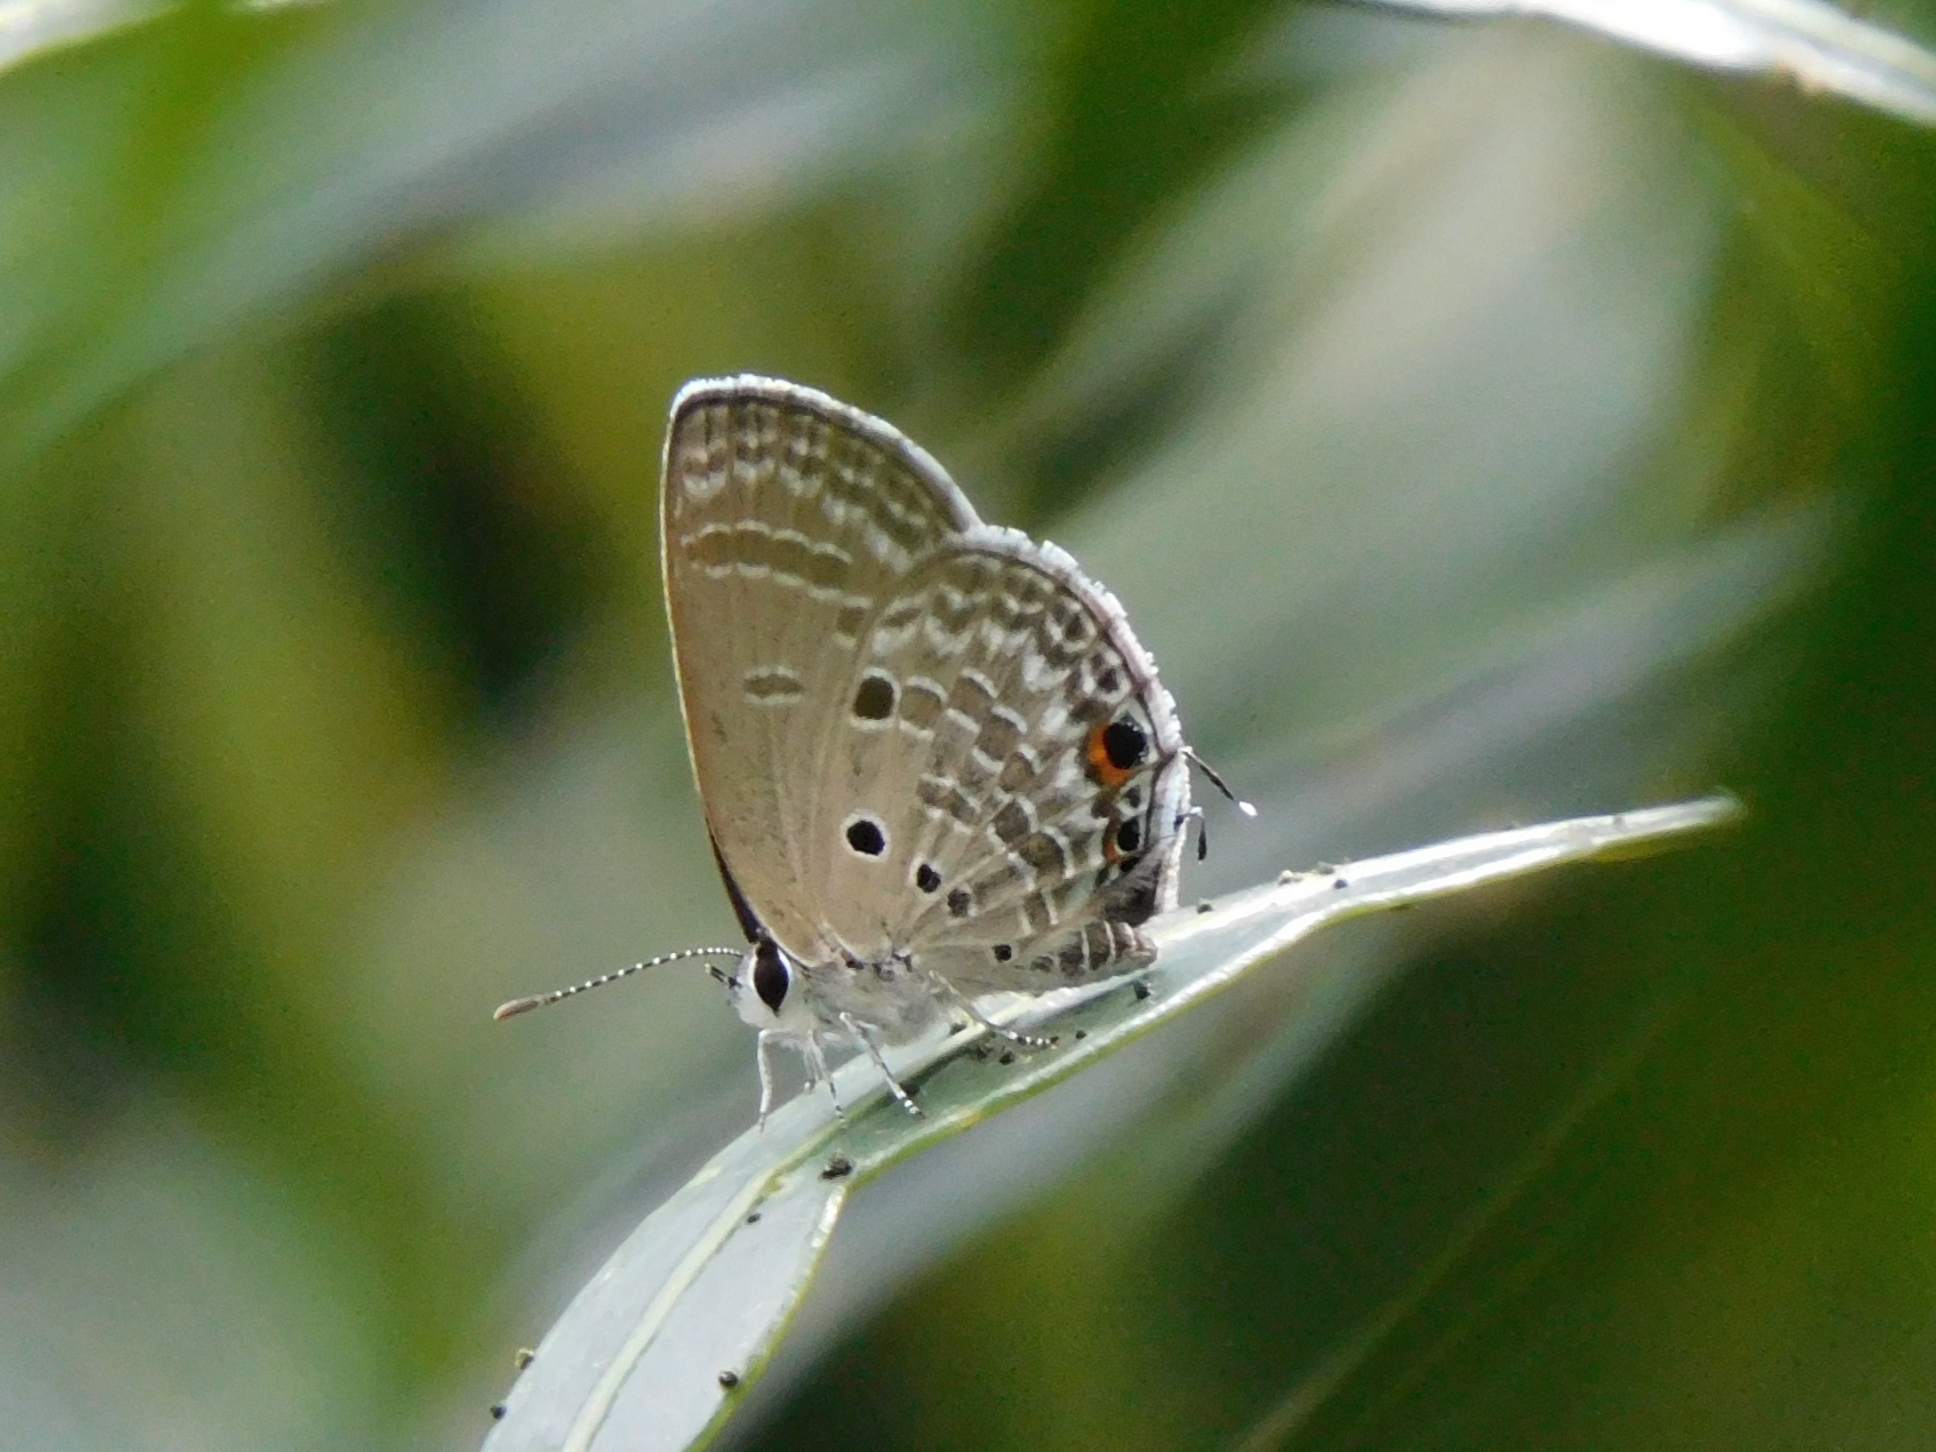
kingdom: Animalia
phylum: Arthropoda
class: Insecta
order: Lepidoptera
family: Lycaenidae
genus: Luthrodes
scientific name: Luthrodes pandava
